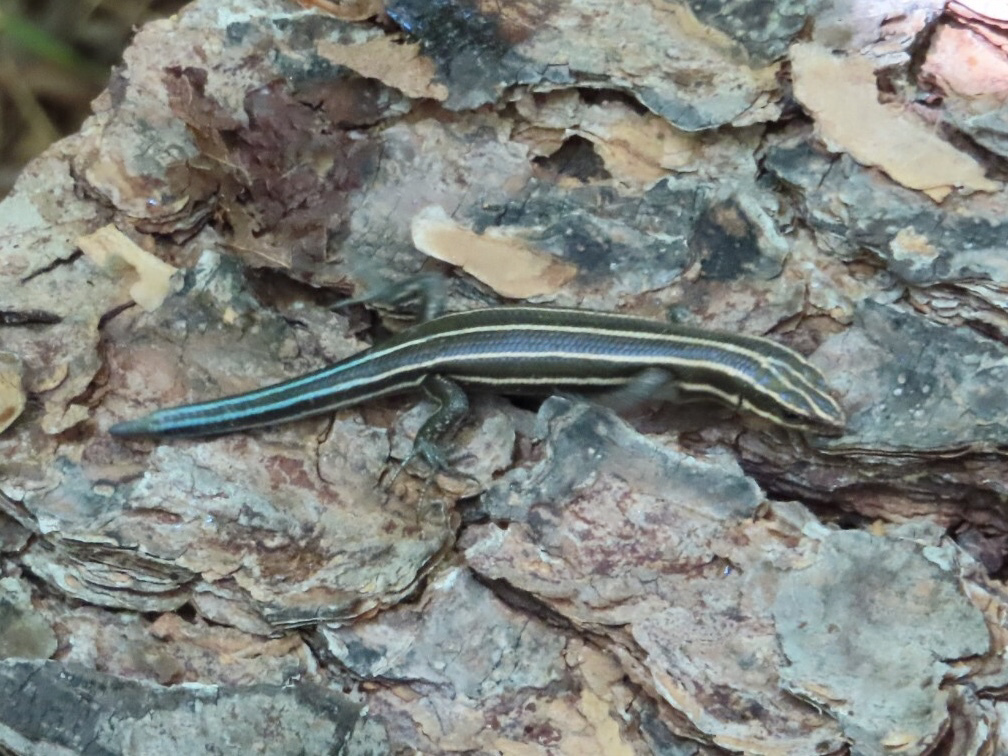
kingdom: Animalia
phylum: Chordata
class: Squamata
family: Scincidae
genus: Plestiodon
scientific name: Plestiodon fasciatus
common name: Five-lined skink
